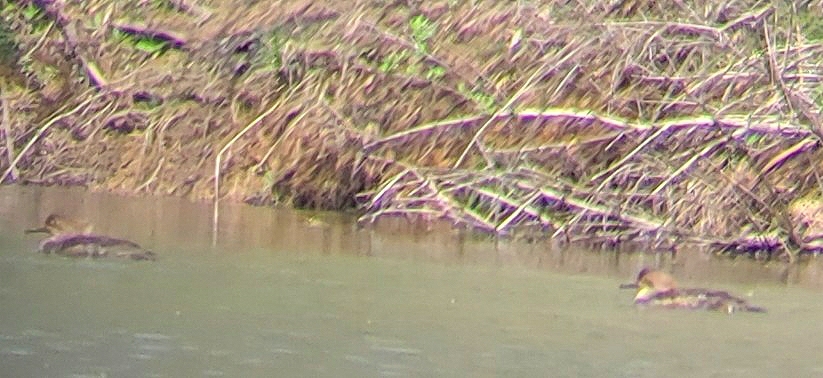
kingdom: Animalia
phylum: Chordata
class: Aves
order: Anseriformes
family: Anatidae
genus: Lophodytes
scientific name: Lophodytes cucullatus
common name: Hooded merganser
